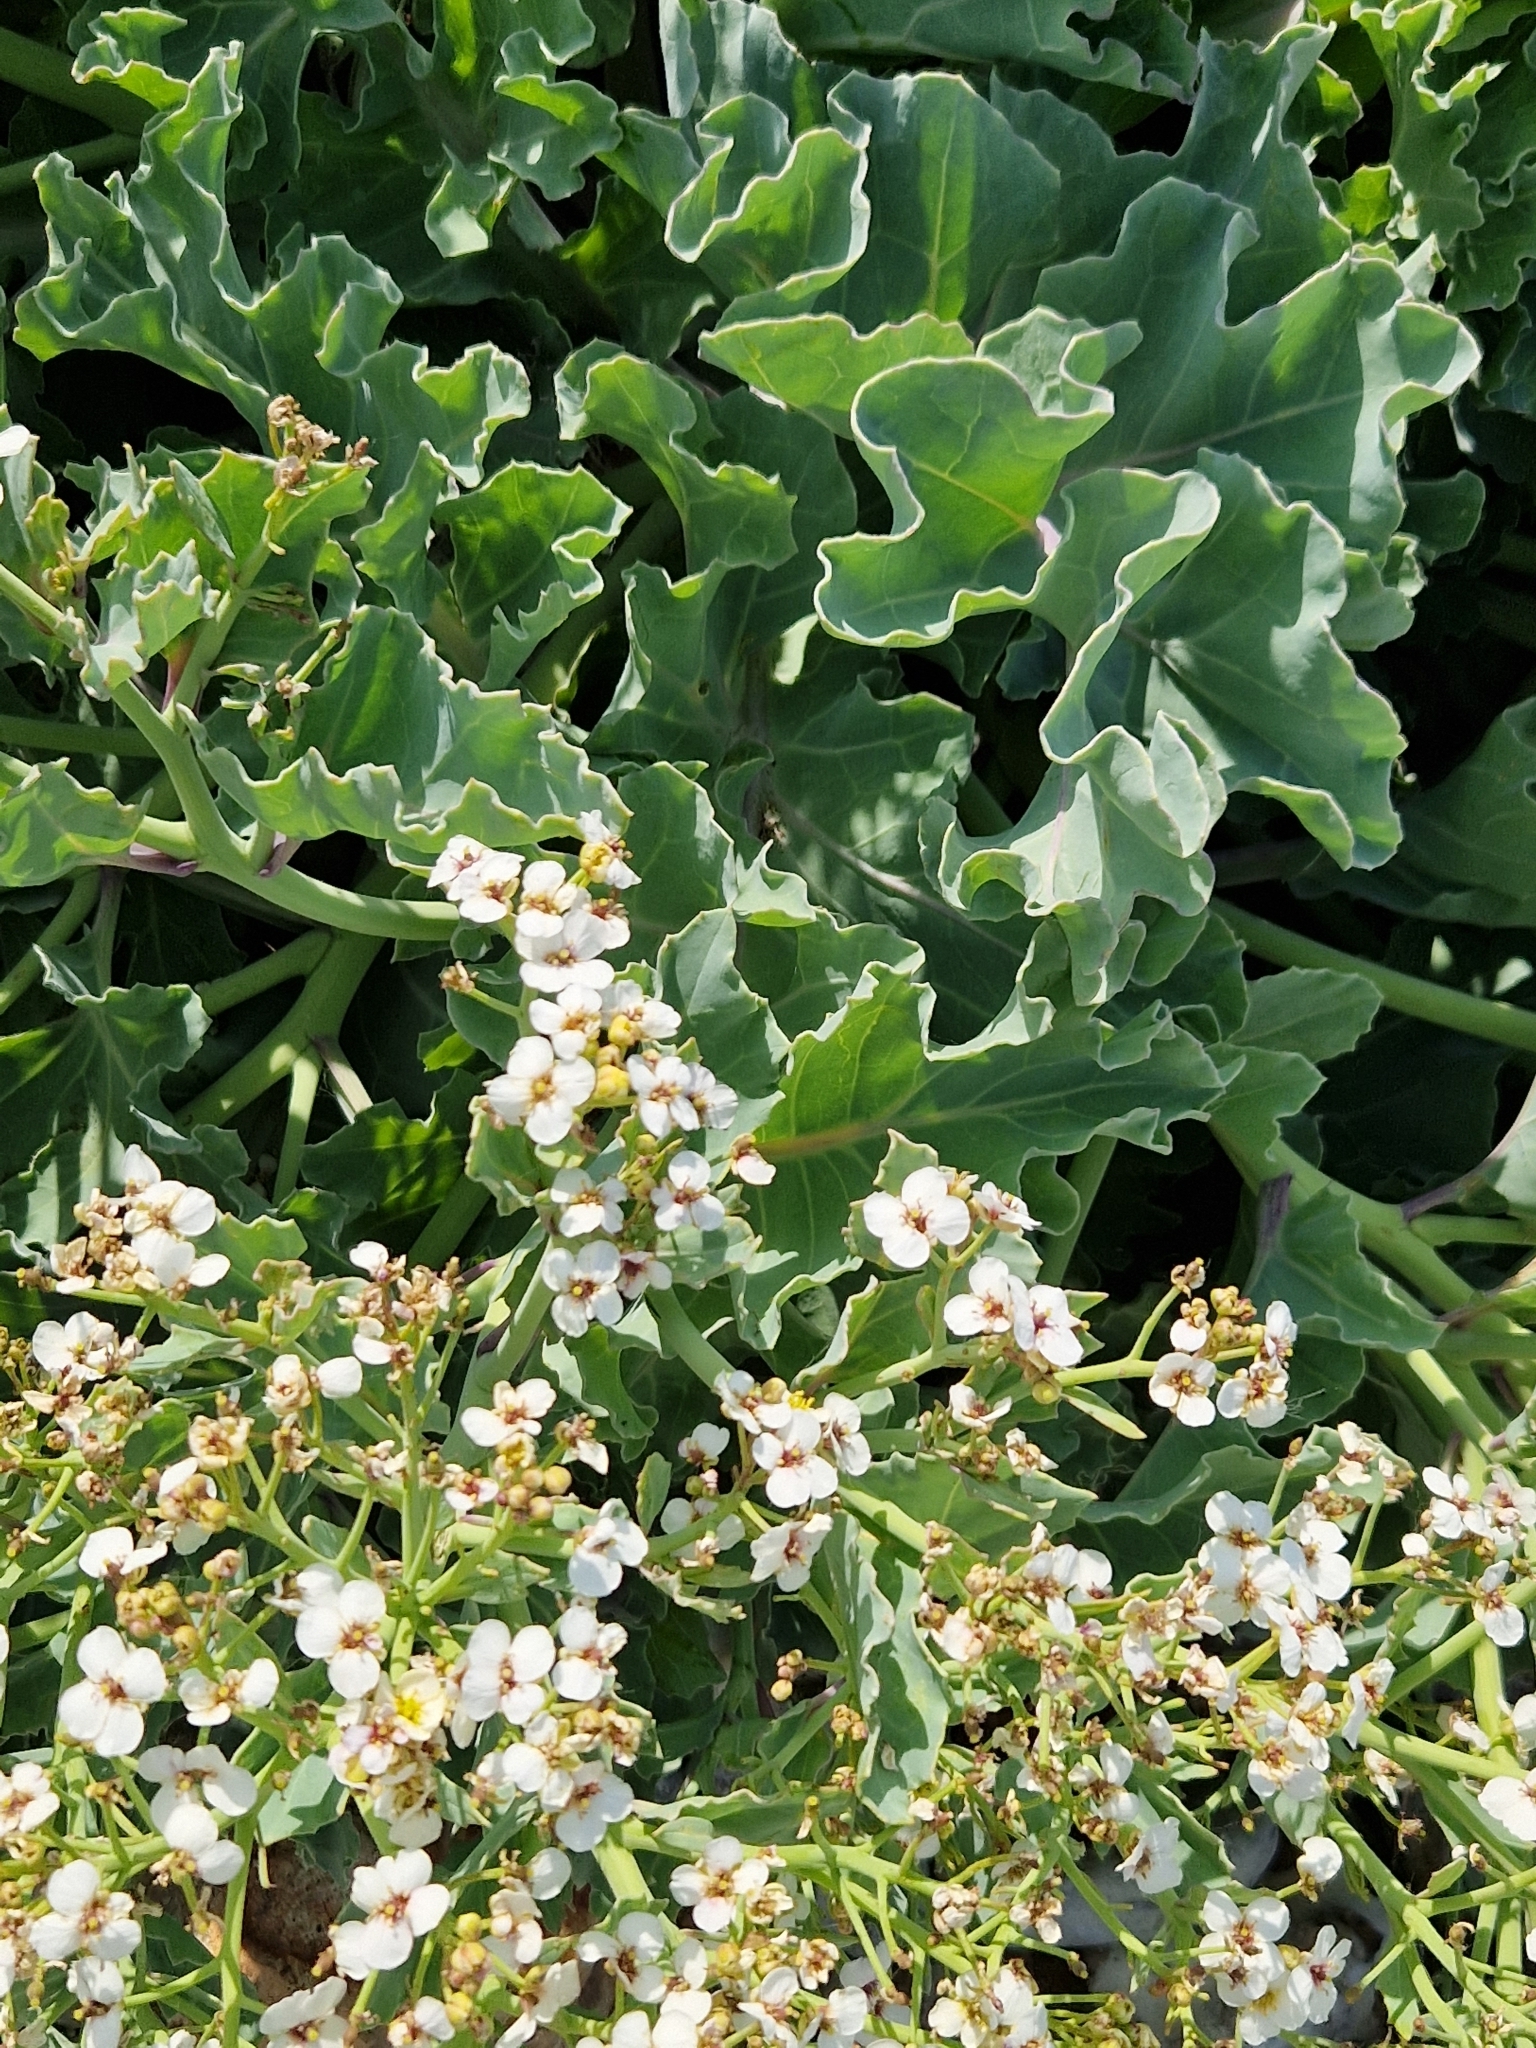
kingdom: Plantae
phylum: Tracheophyta
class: Magnoliopsida
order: Brassicales
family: Brassicaceae
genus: Crambe
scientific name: Crambe maritima
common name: Sea-kale
